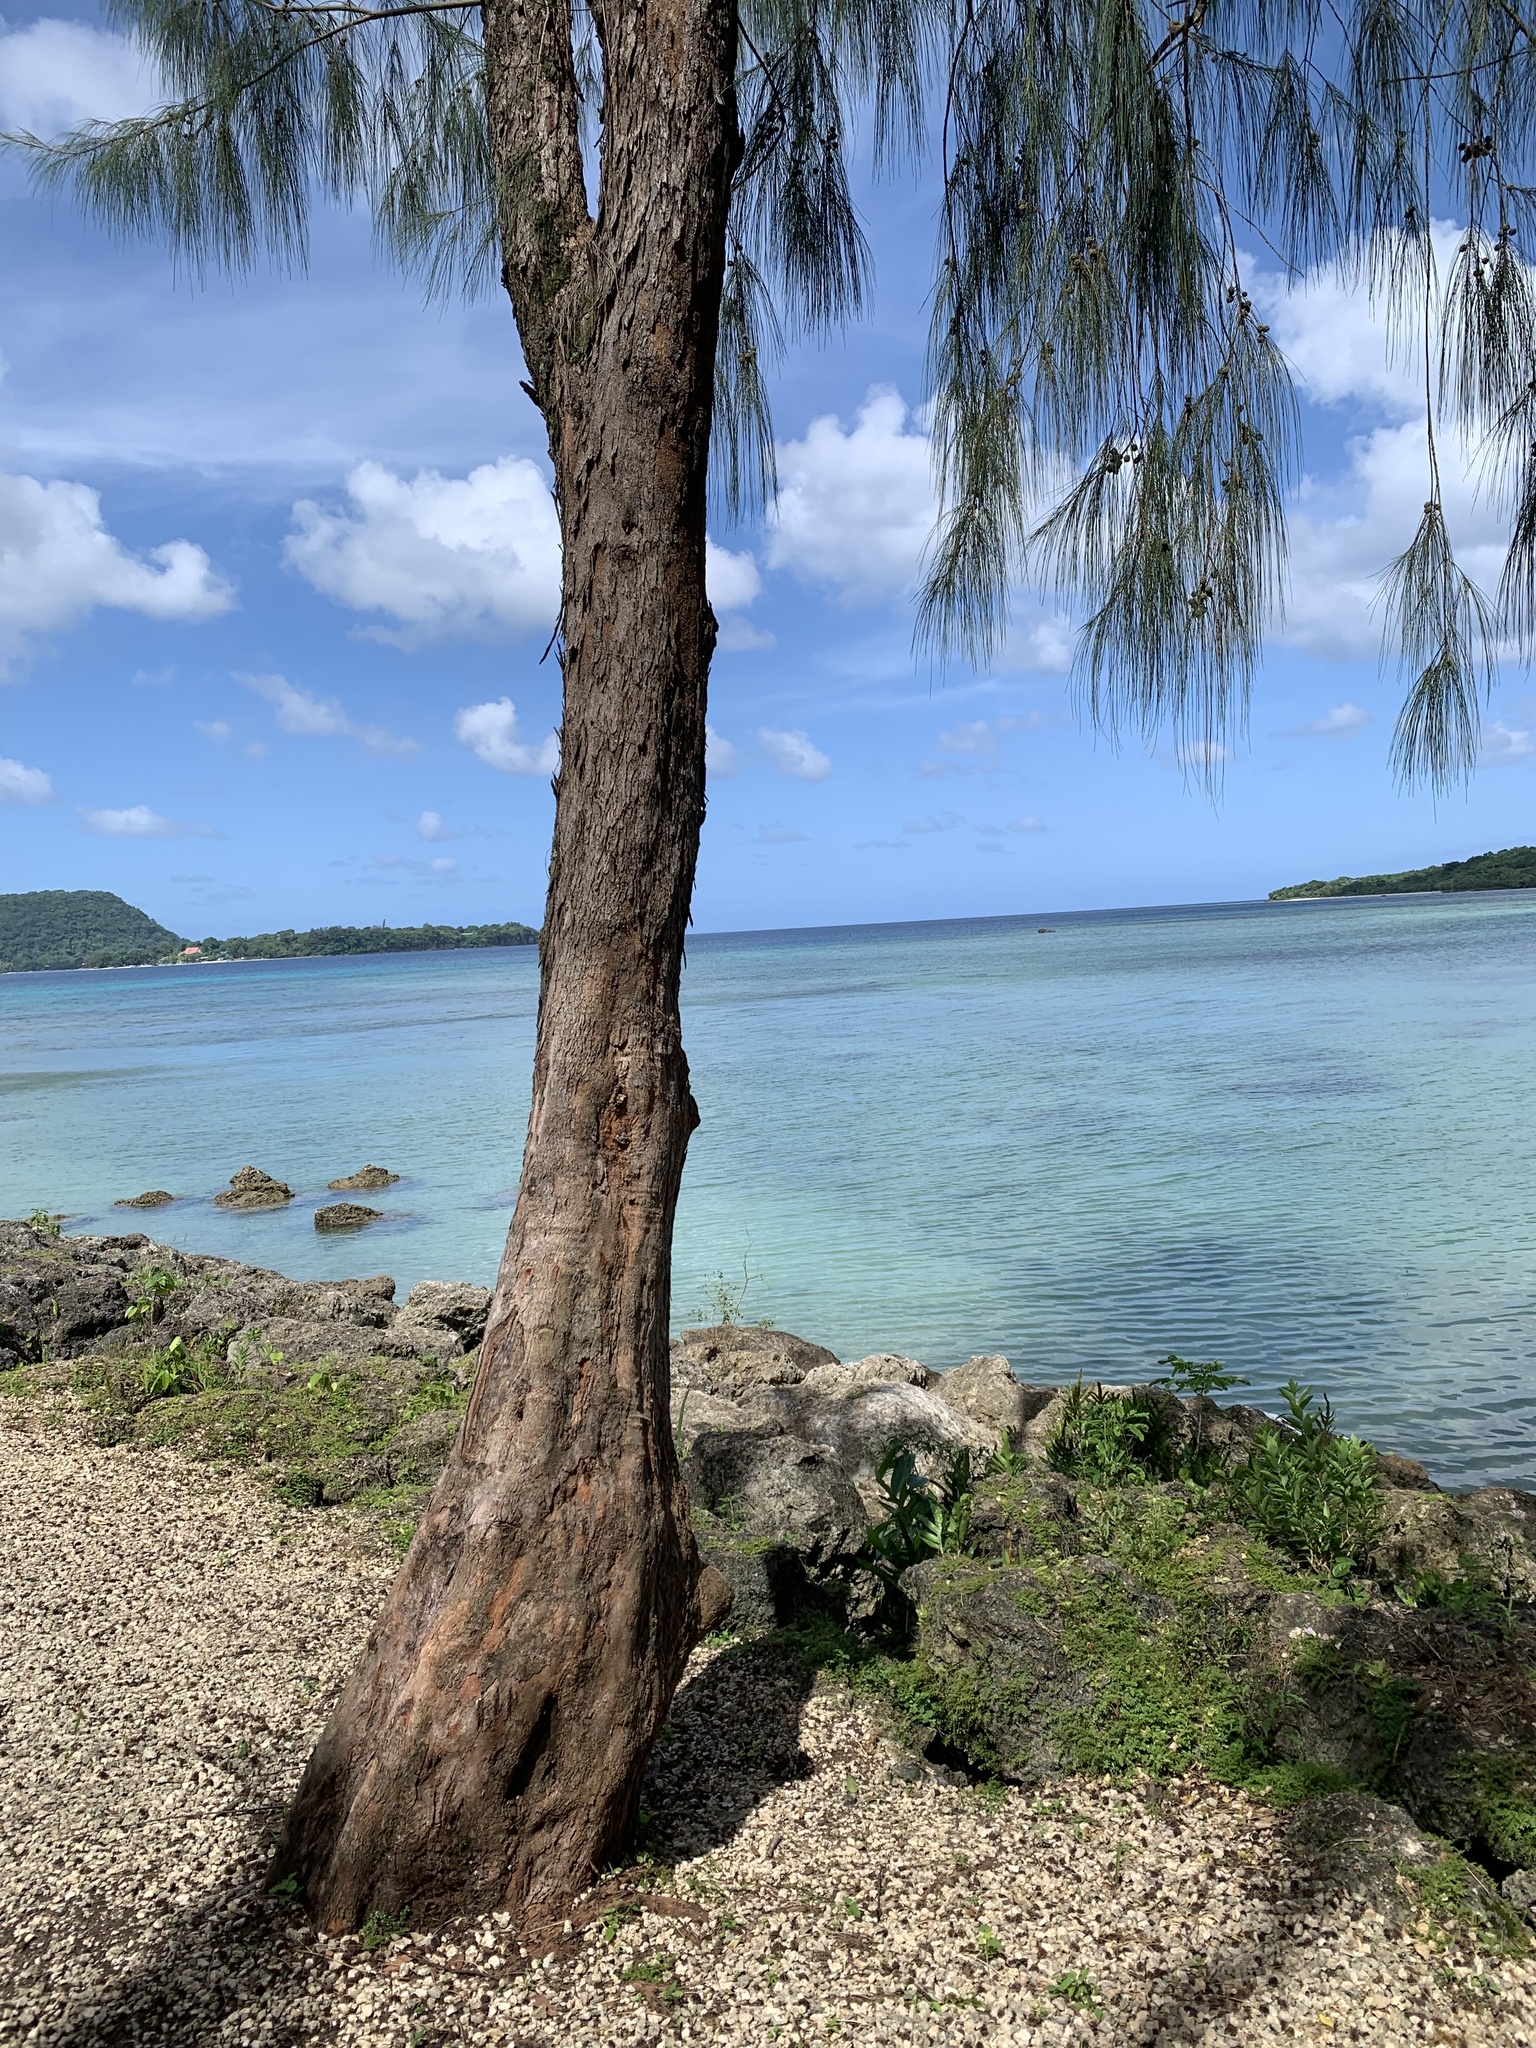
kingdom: Plantae
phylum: Tracheophyta
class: Magnoliopsida
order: Fagales
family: Casuarinaceae
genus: Casuarina
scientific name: Casuarina equisetifolia
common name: Beach sheoak
